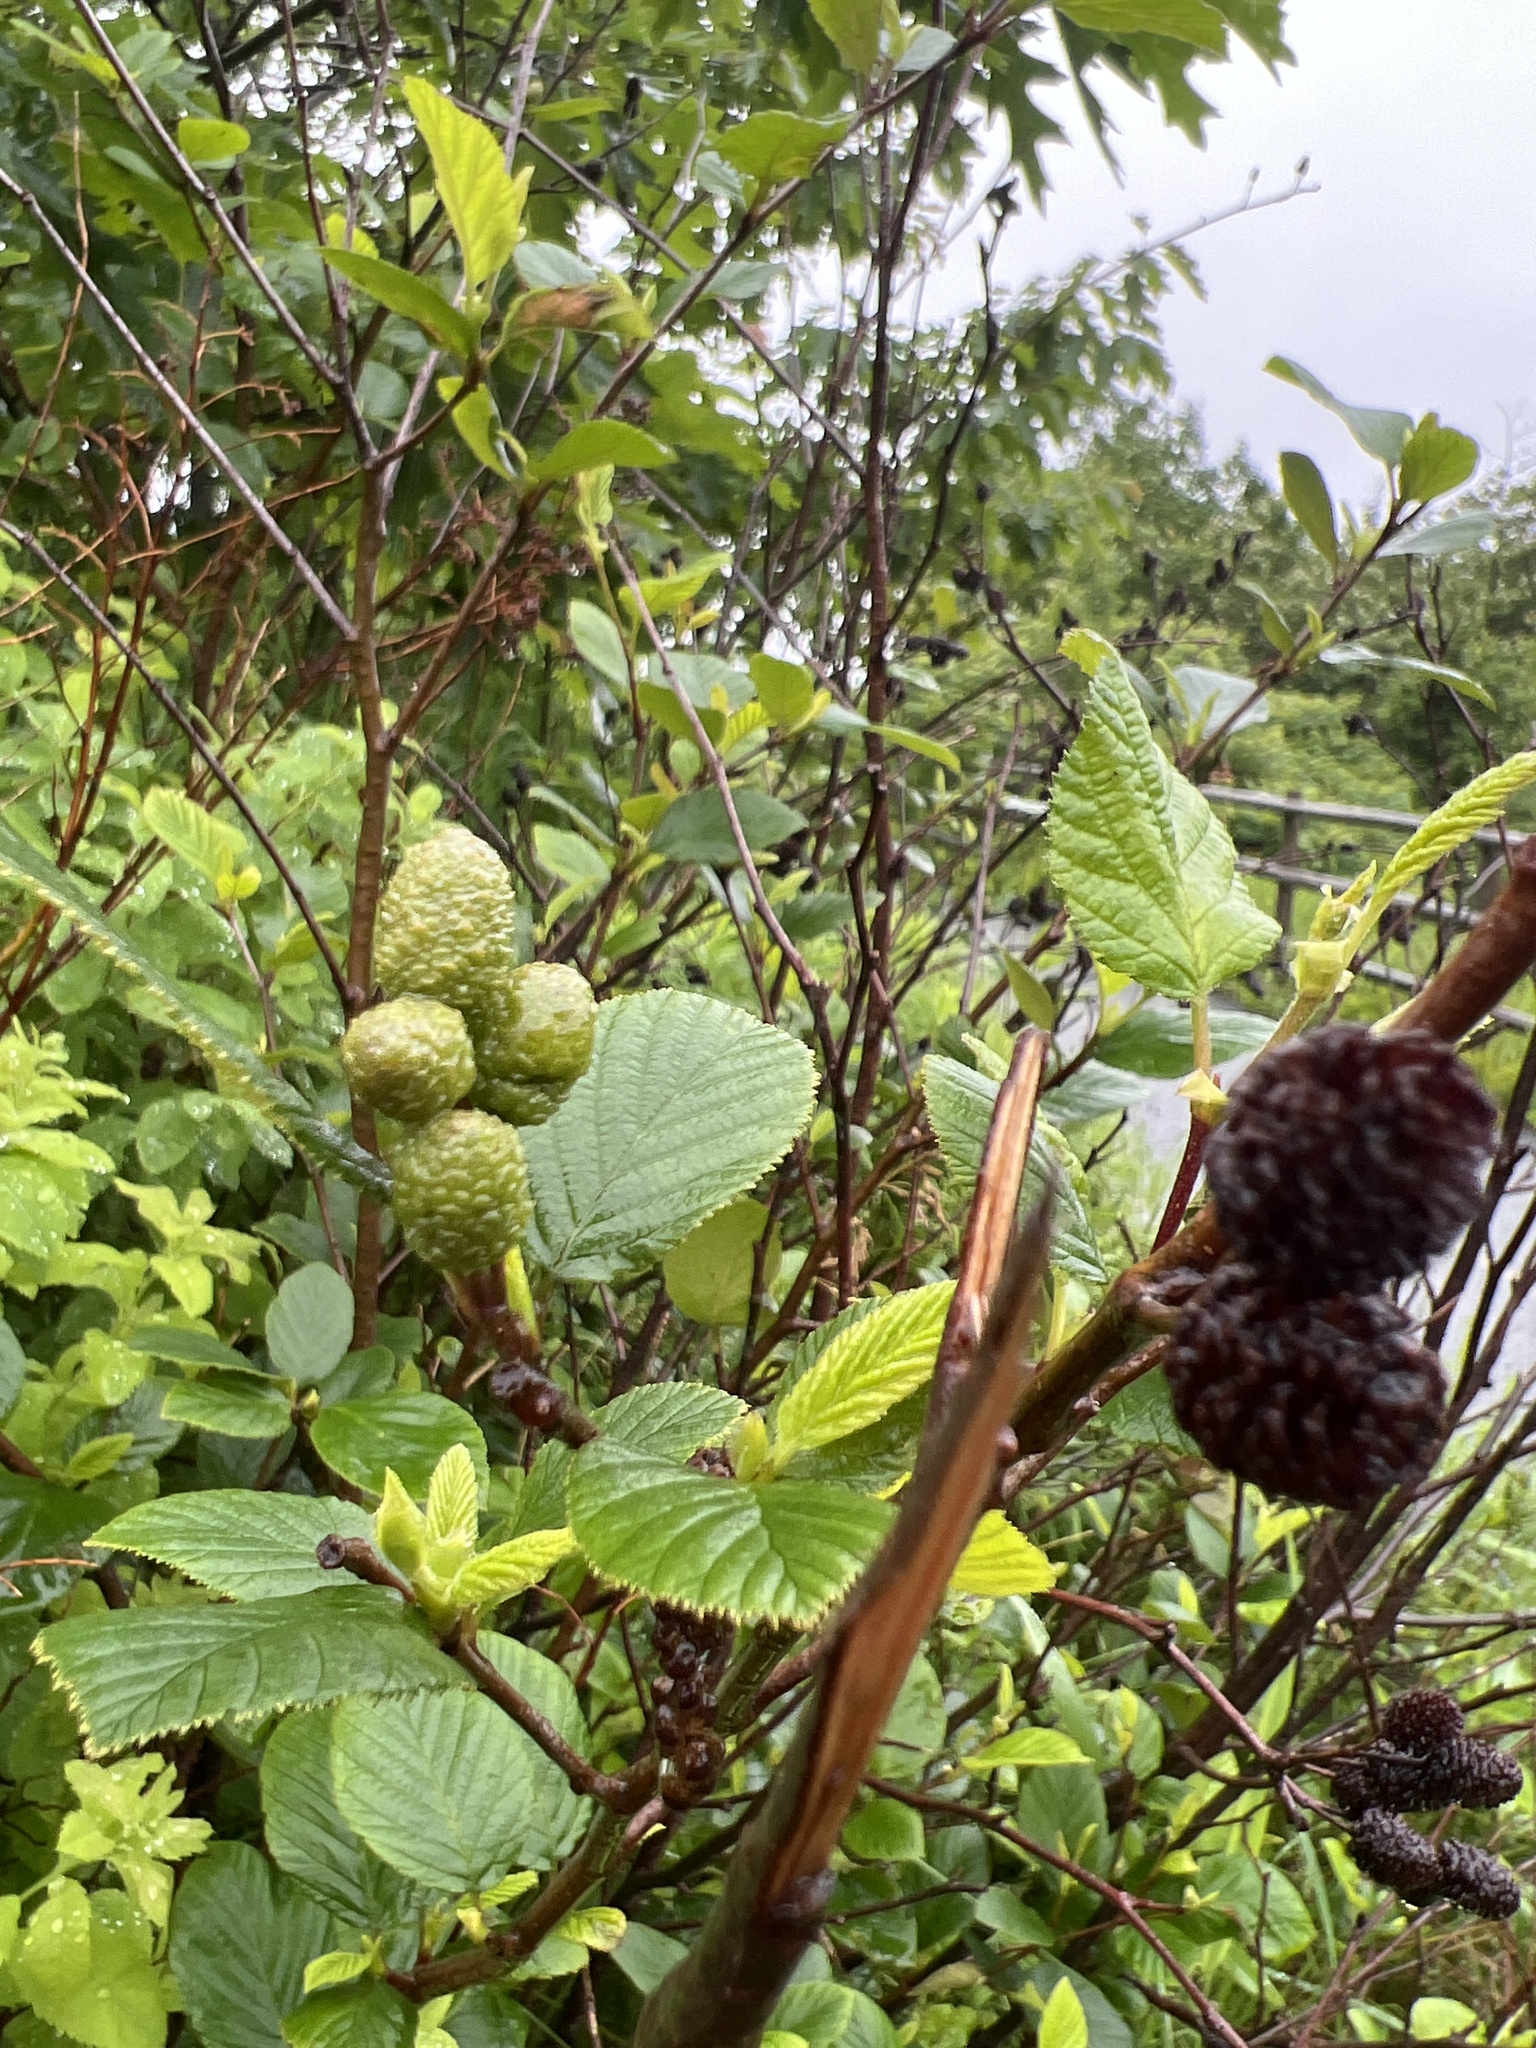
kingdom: Plantae
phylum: Tracheophyta
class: Magnoliopsida
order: Fagales
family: Betulaceae
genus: Alnus
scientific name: Alnus alnobetula
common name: Green alder
